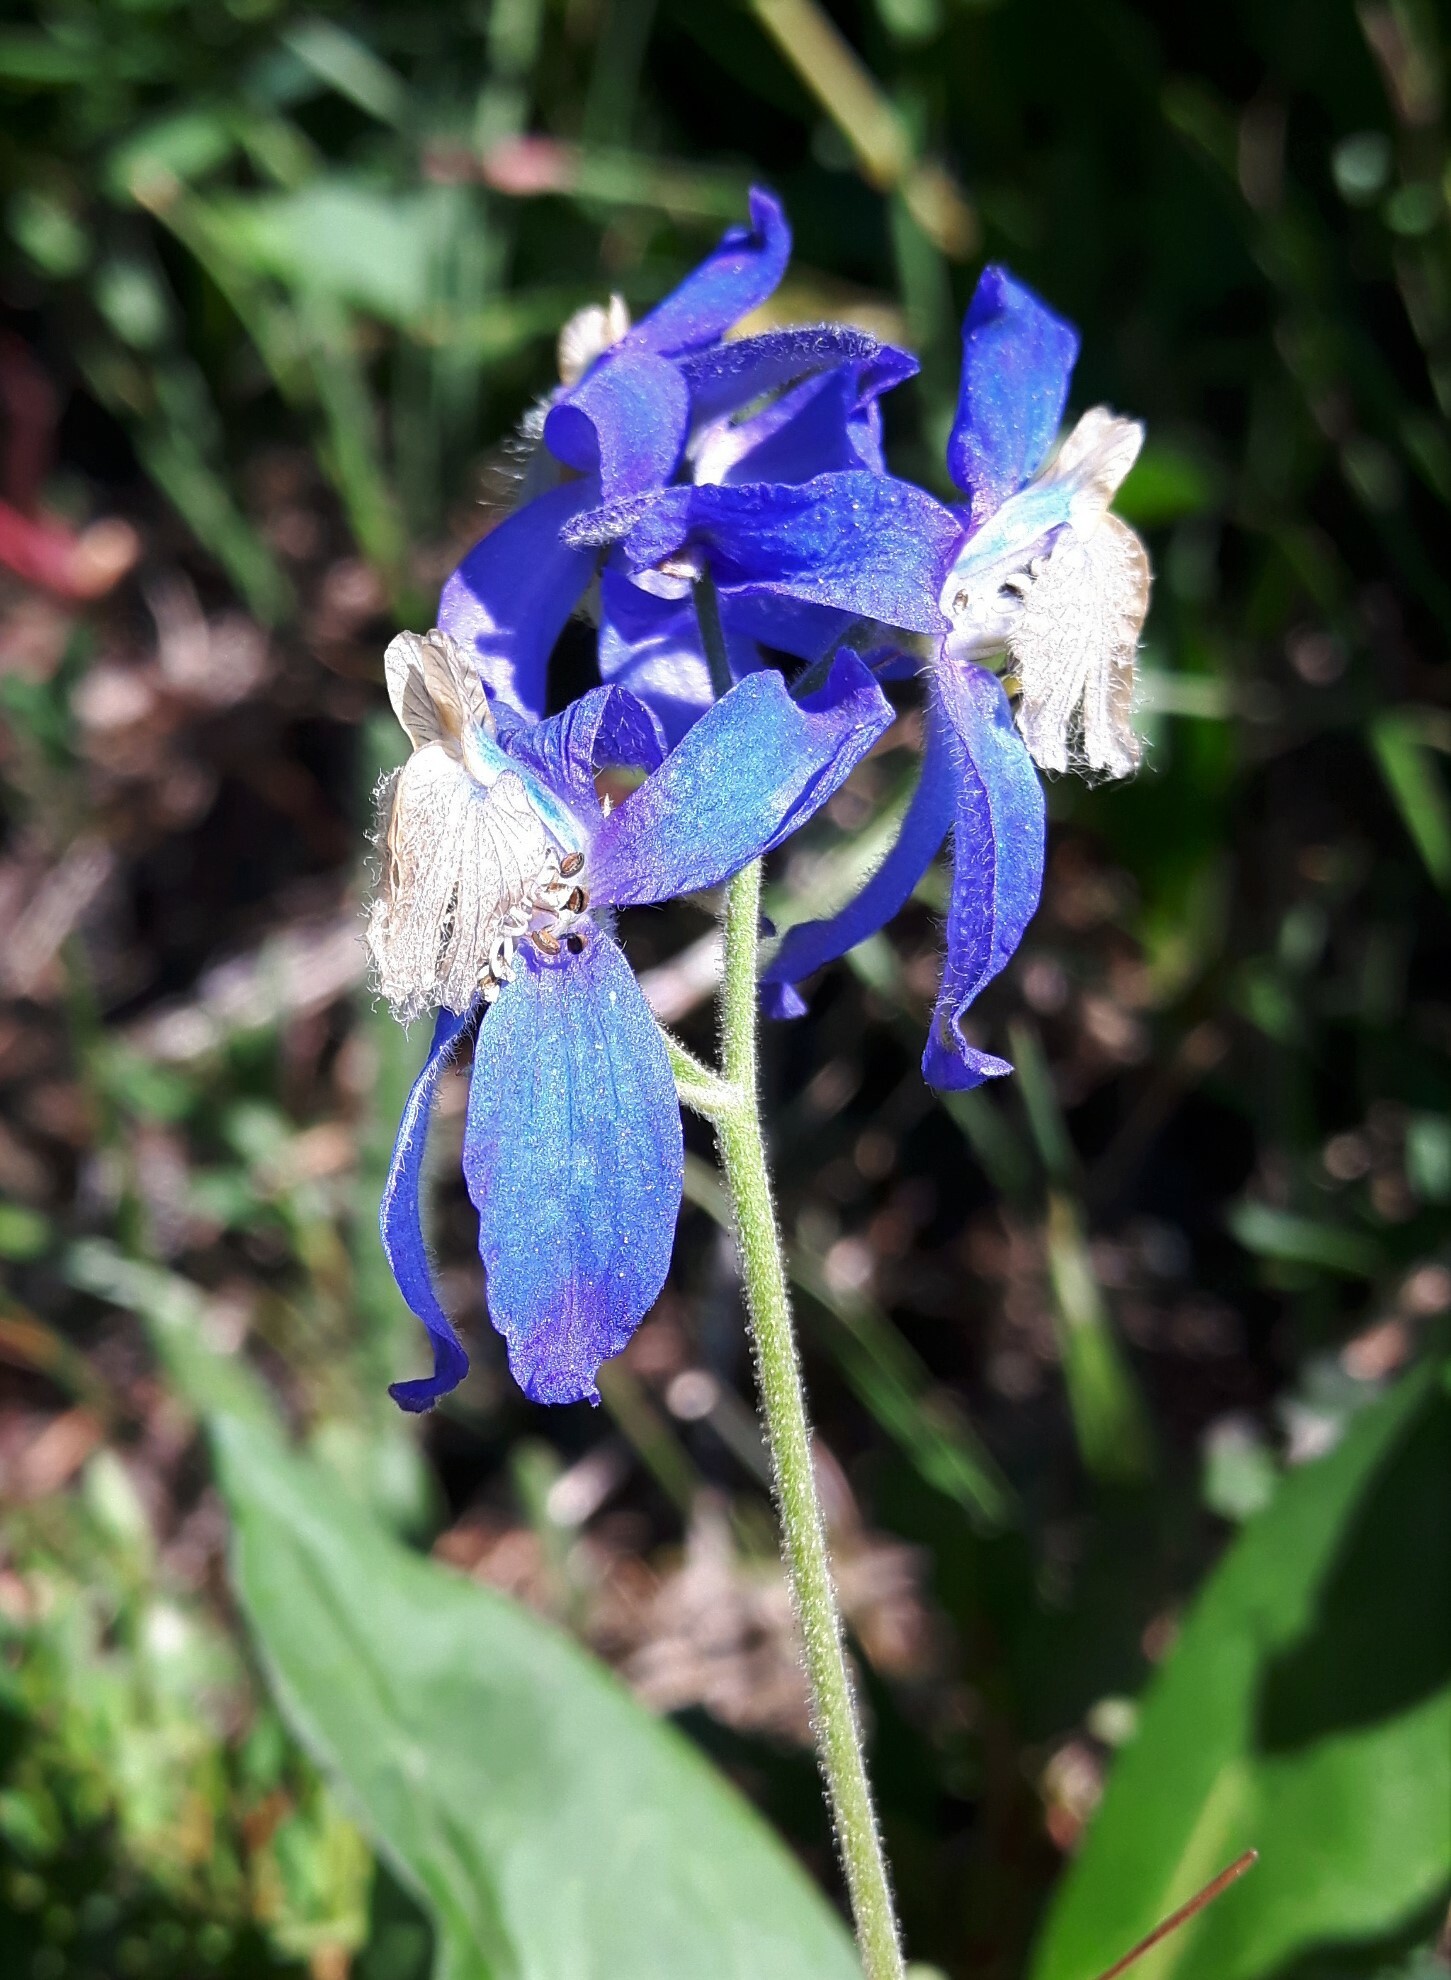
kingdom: Plantae
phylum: Tracheophyta
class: Magnoliopsida
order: Ranunculales
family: Ranunculaceae
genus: Delphinium
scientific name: Delphinium sutherlandii
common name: Sutherland's larkspur
